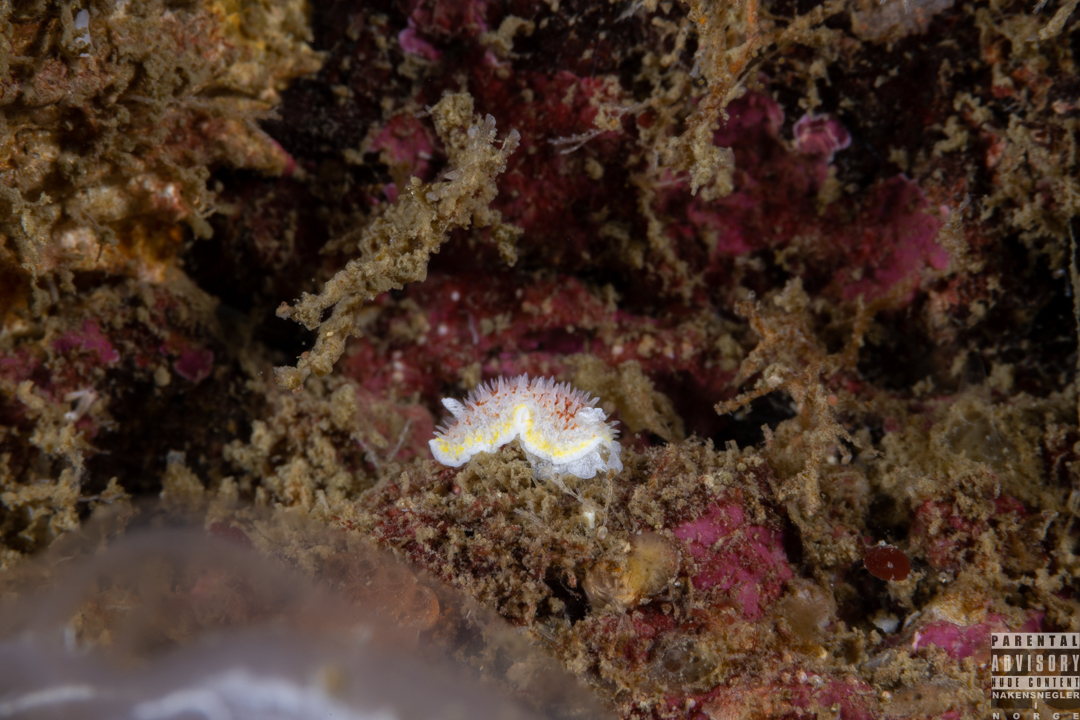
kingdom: Animalia
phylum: Mollusca
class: Gastropoda
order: Nudibranchia
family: Calycidorididae
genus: Diaphorodoris
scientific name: Diaphorodoris luteocincta
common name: Fried egg nudibranch
